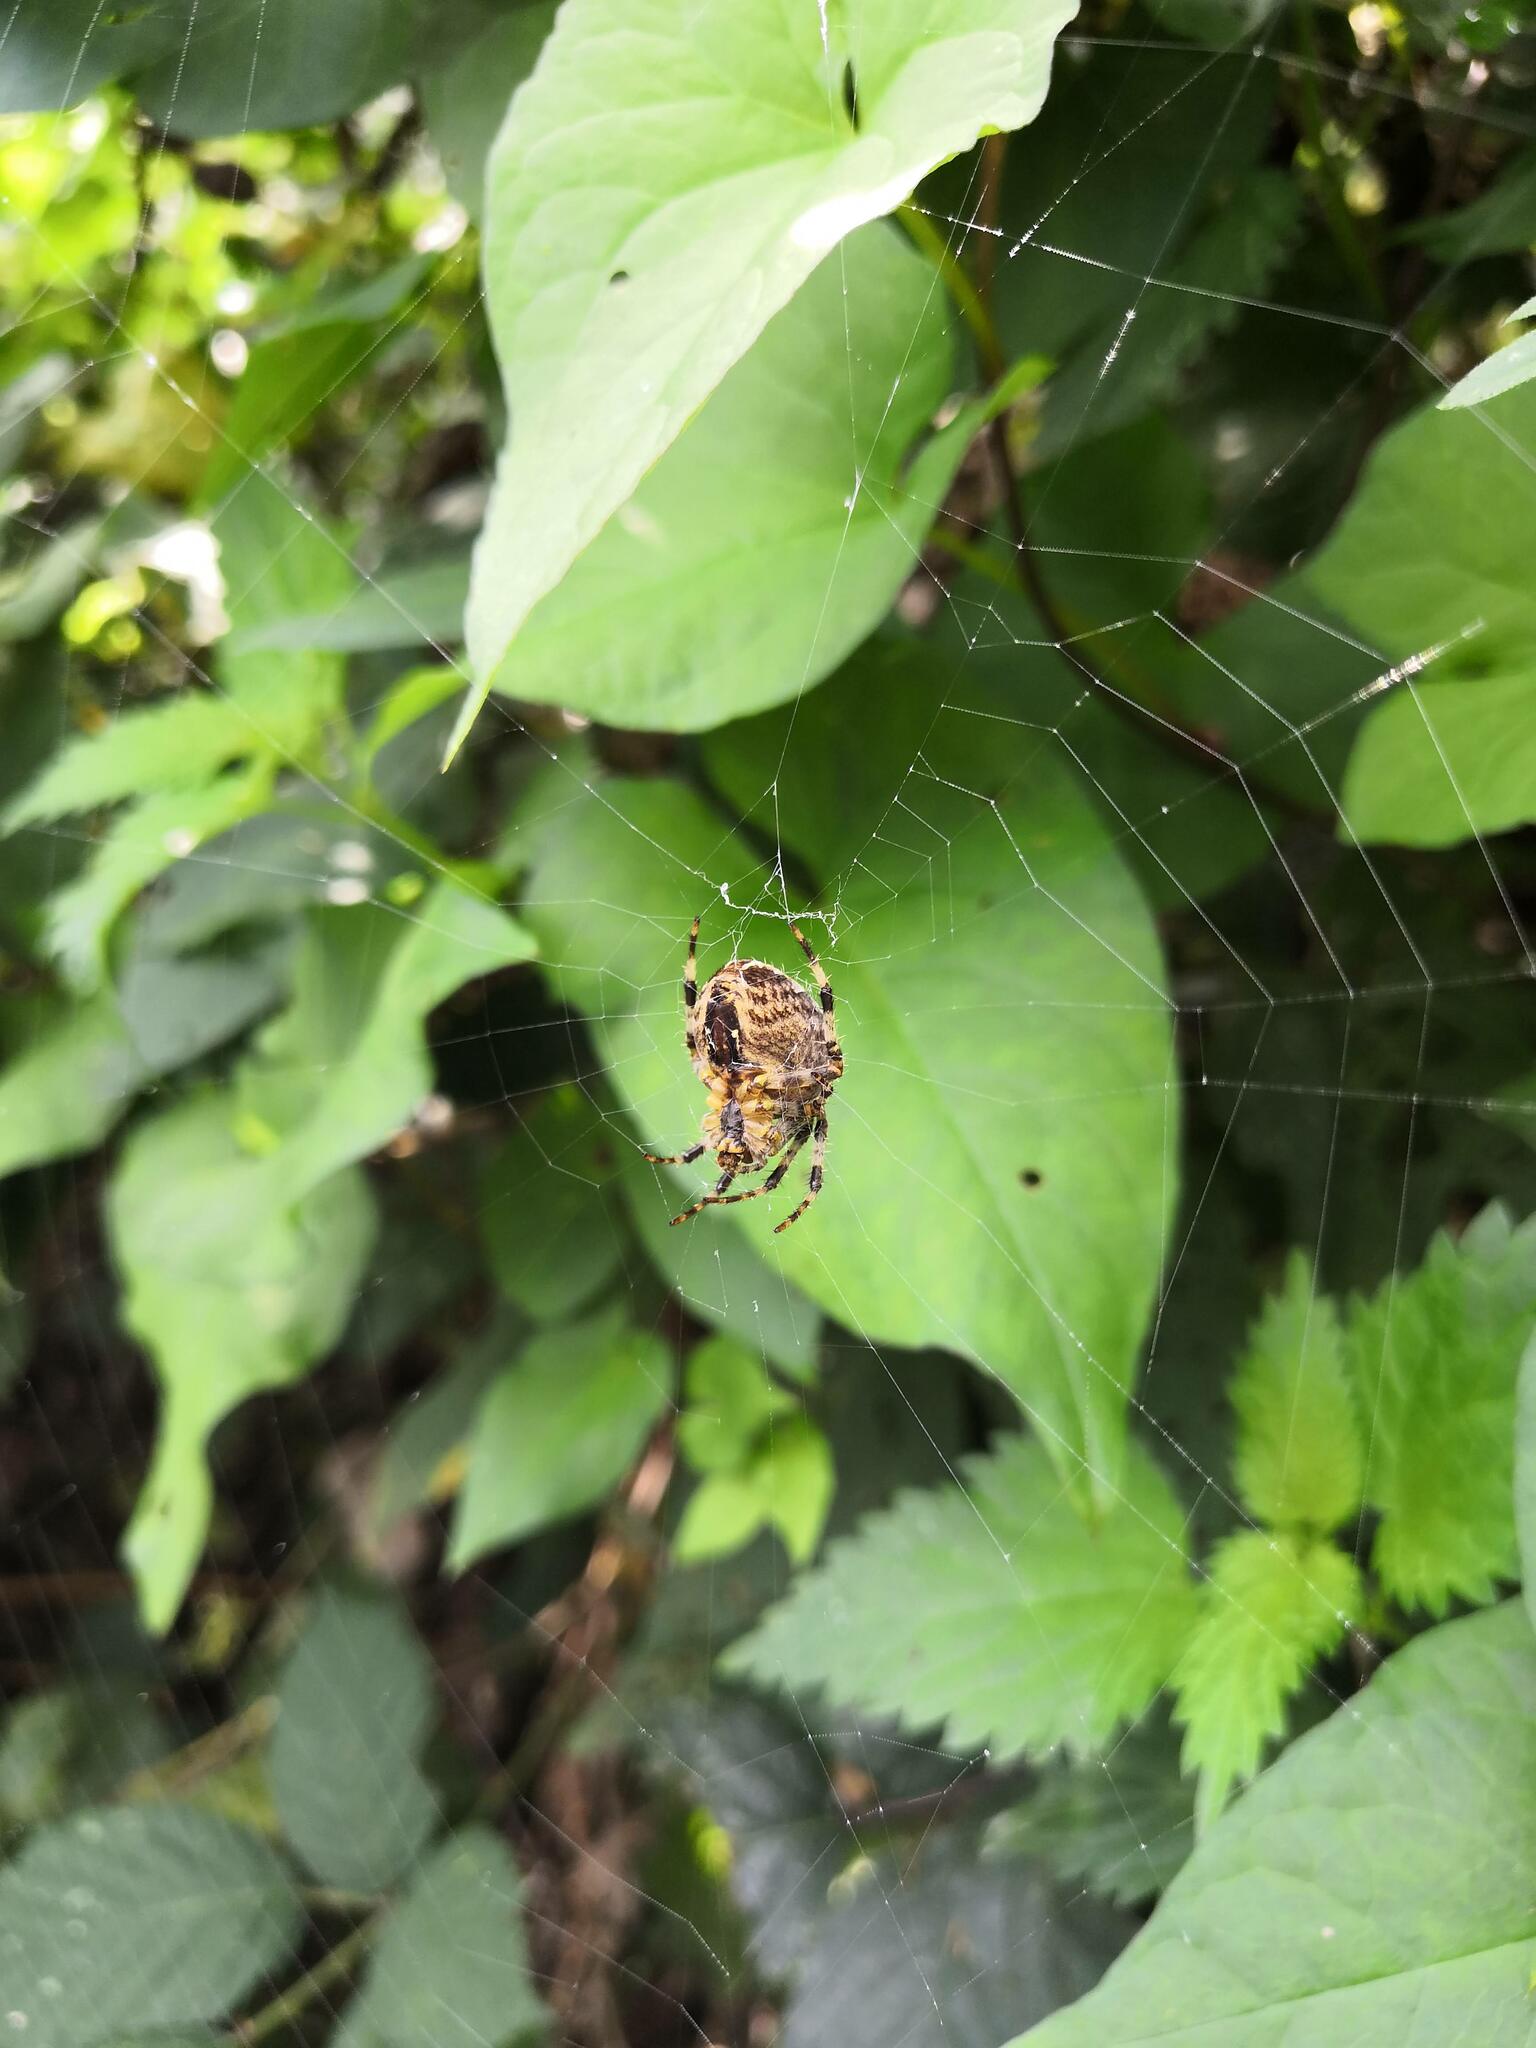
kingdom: Animalia
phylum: Arthropoda
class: Arachnida
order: Araneae
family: Araneidae
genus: Araneus
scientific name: Araneus diadematus
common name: Cross orbweaver
